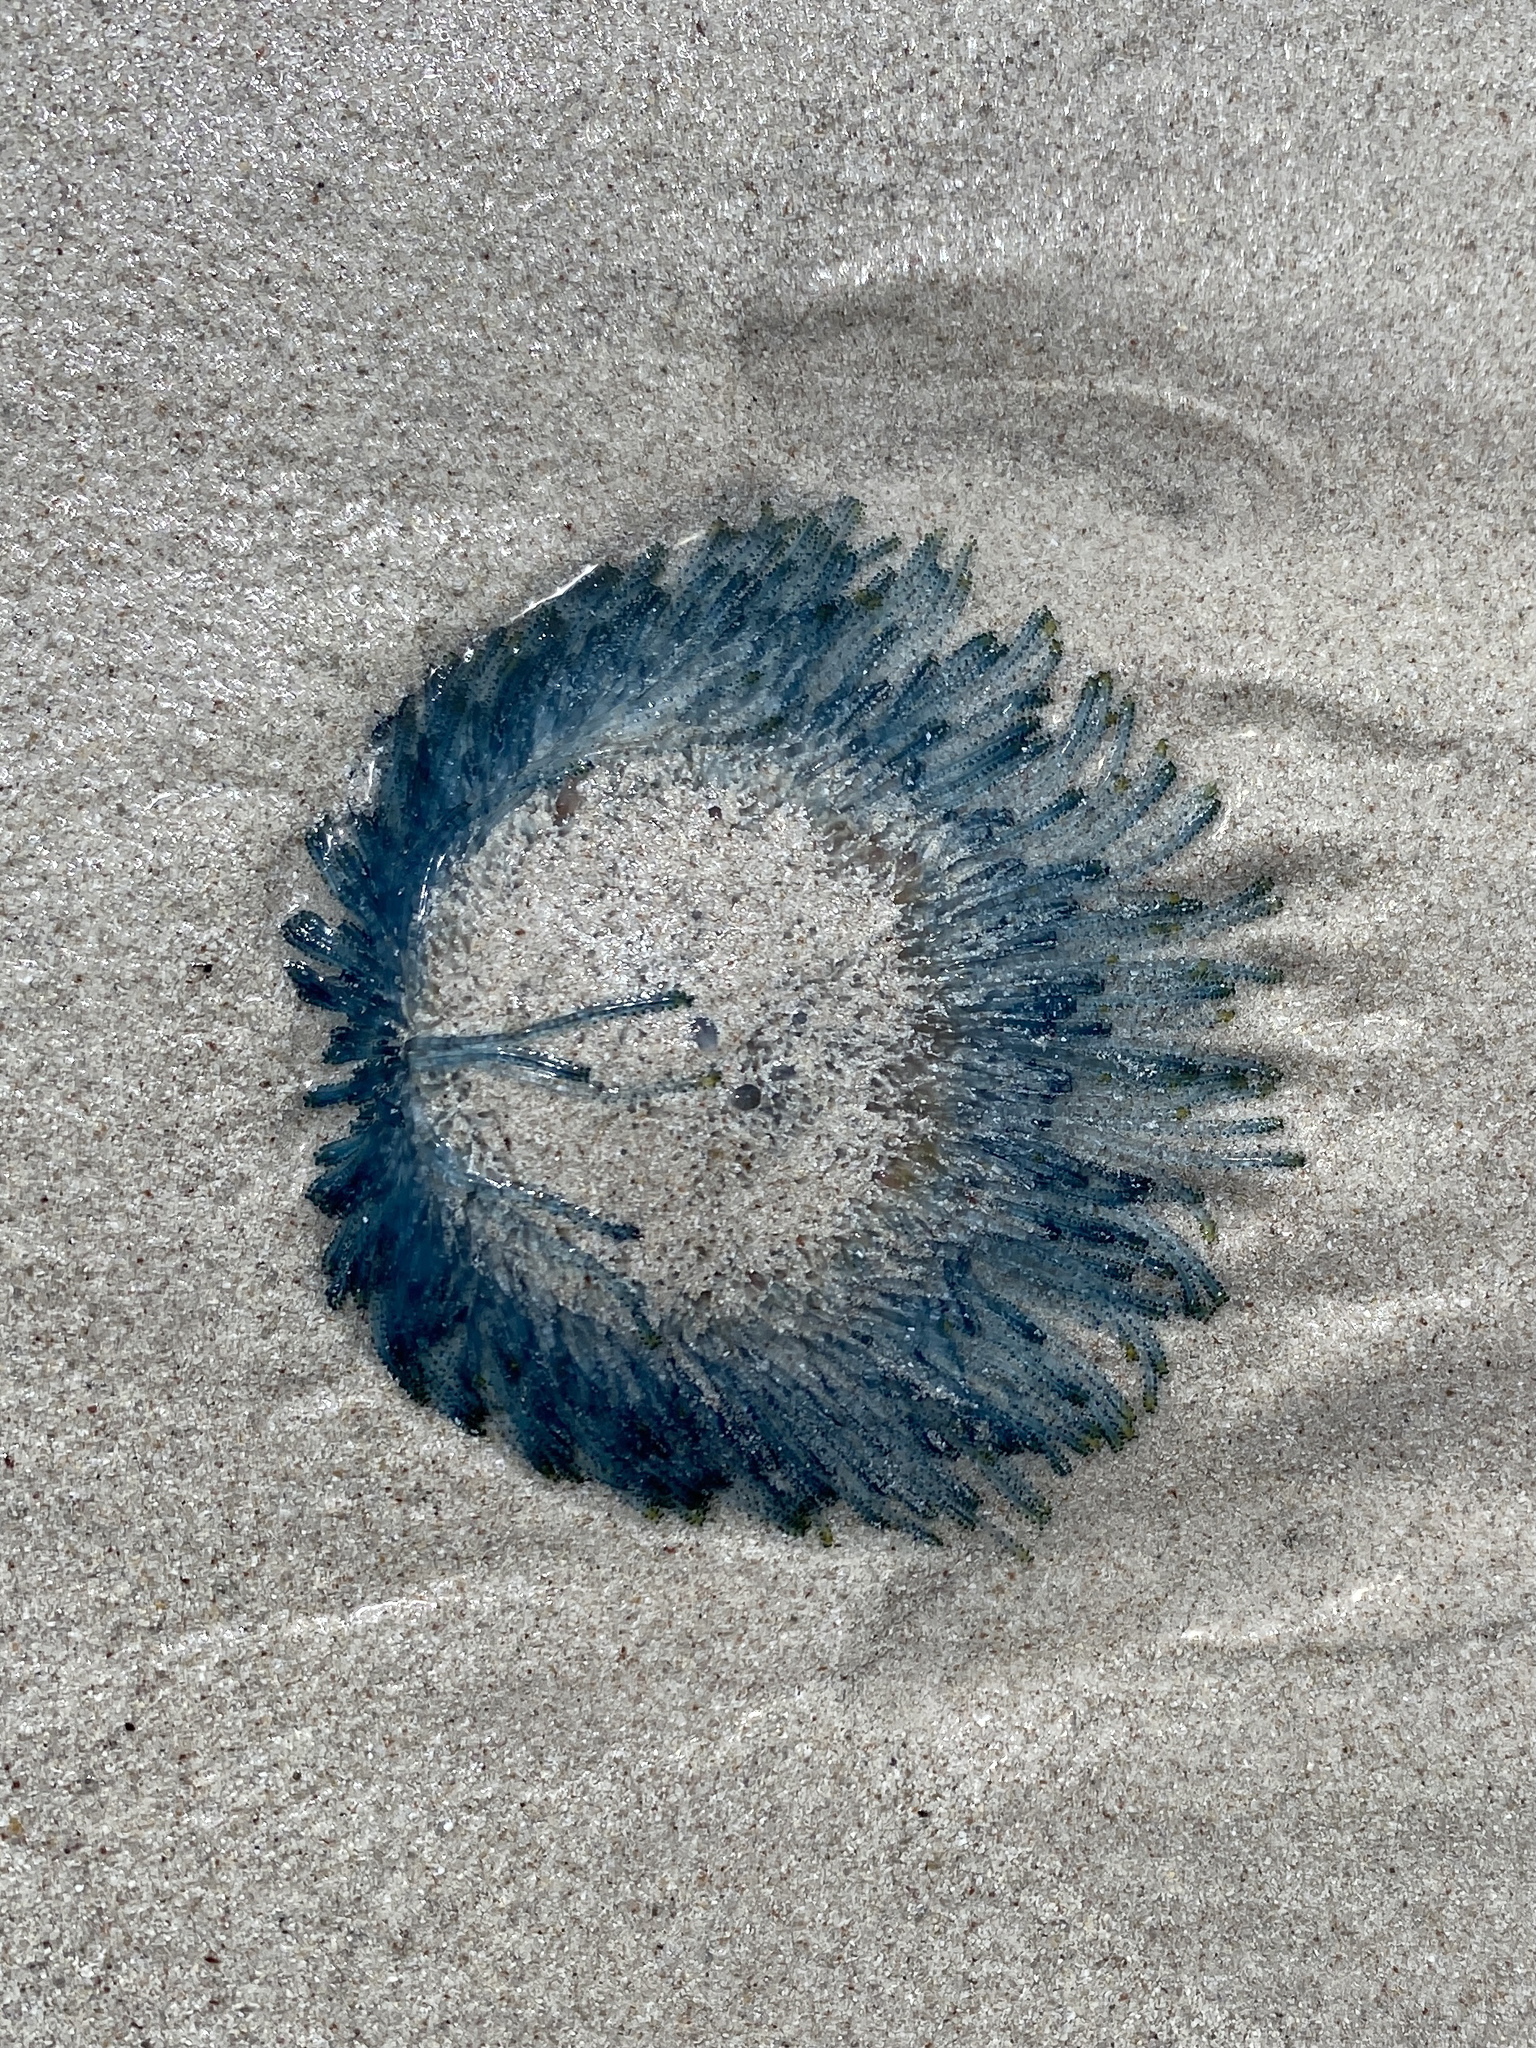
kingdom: Animalia
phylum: Cnidaria
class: Hydrozoa
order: Anthoathecata
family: Porpitidae
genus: Porpita
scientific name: Porpita porpita
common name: Blue button
